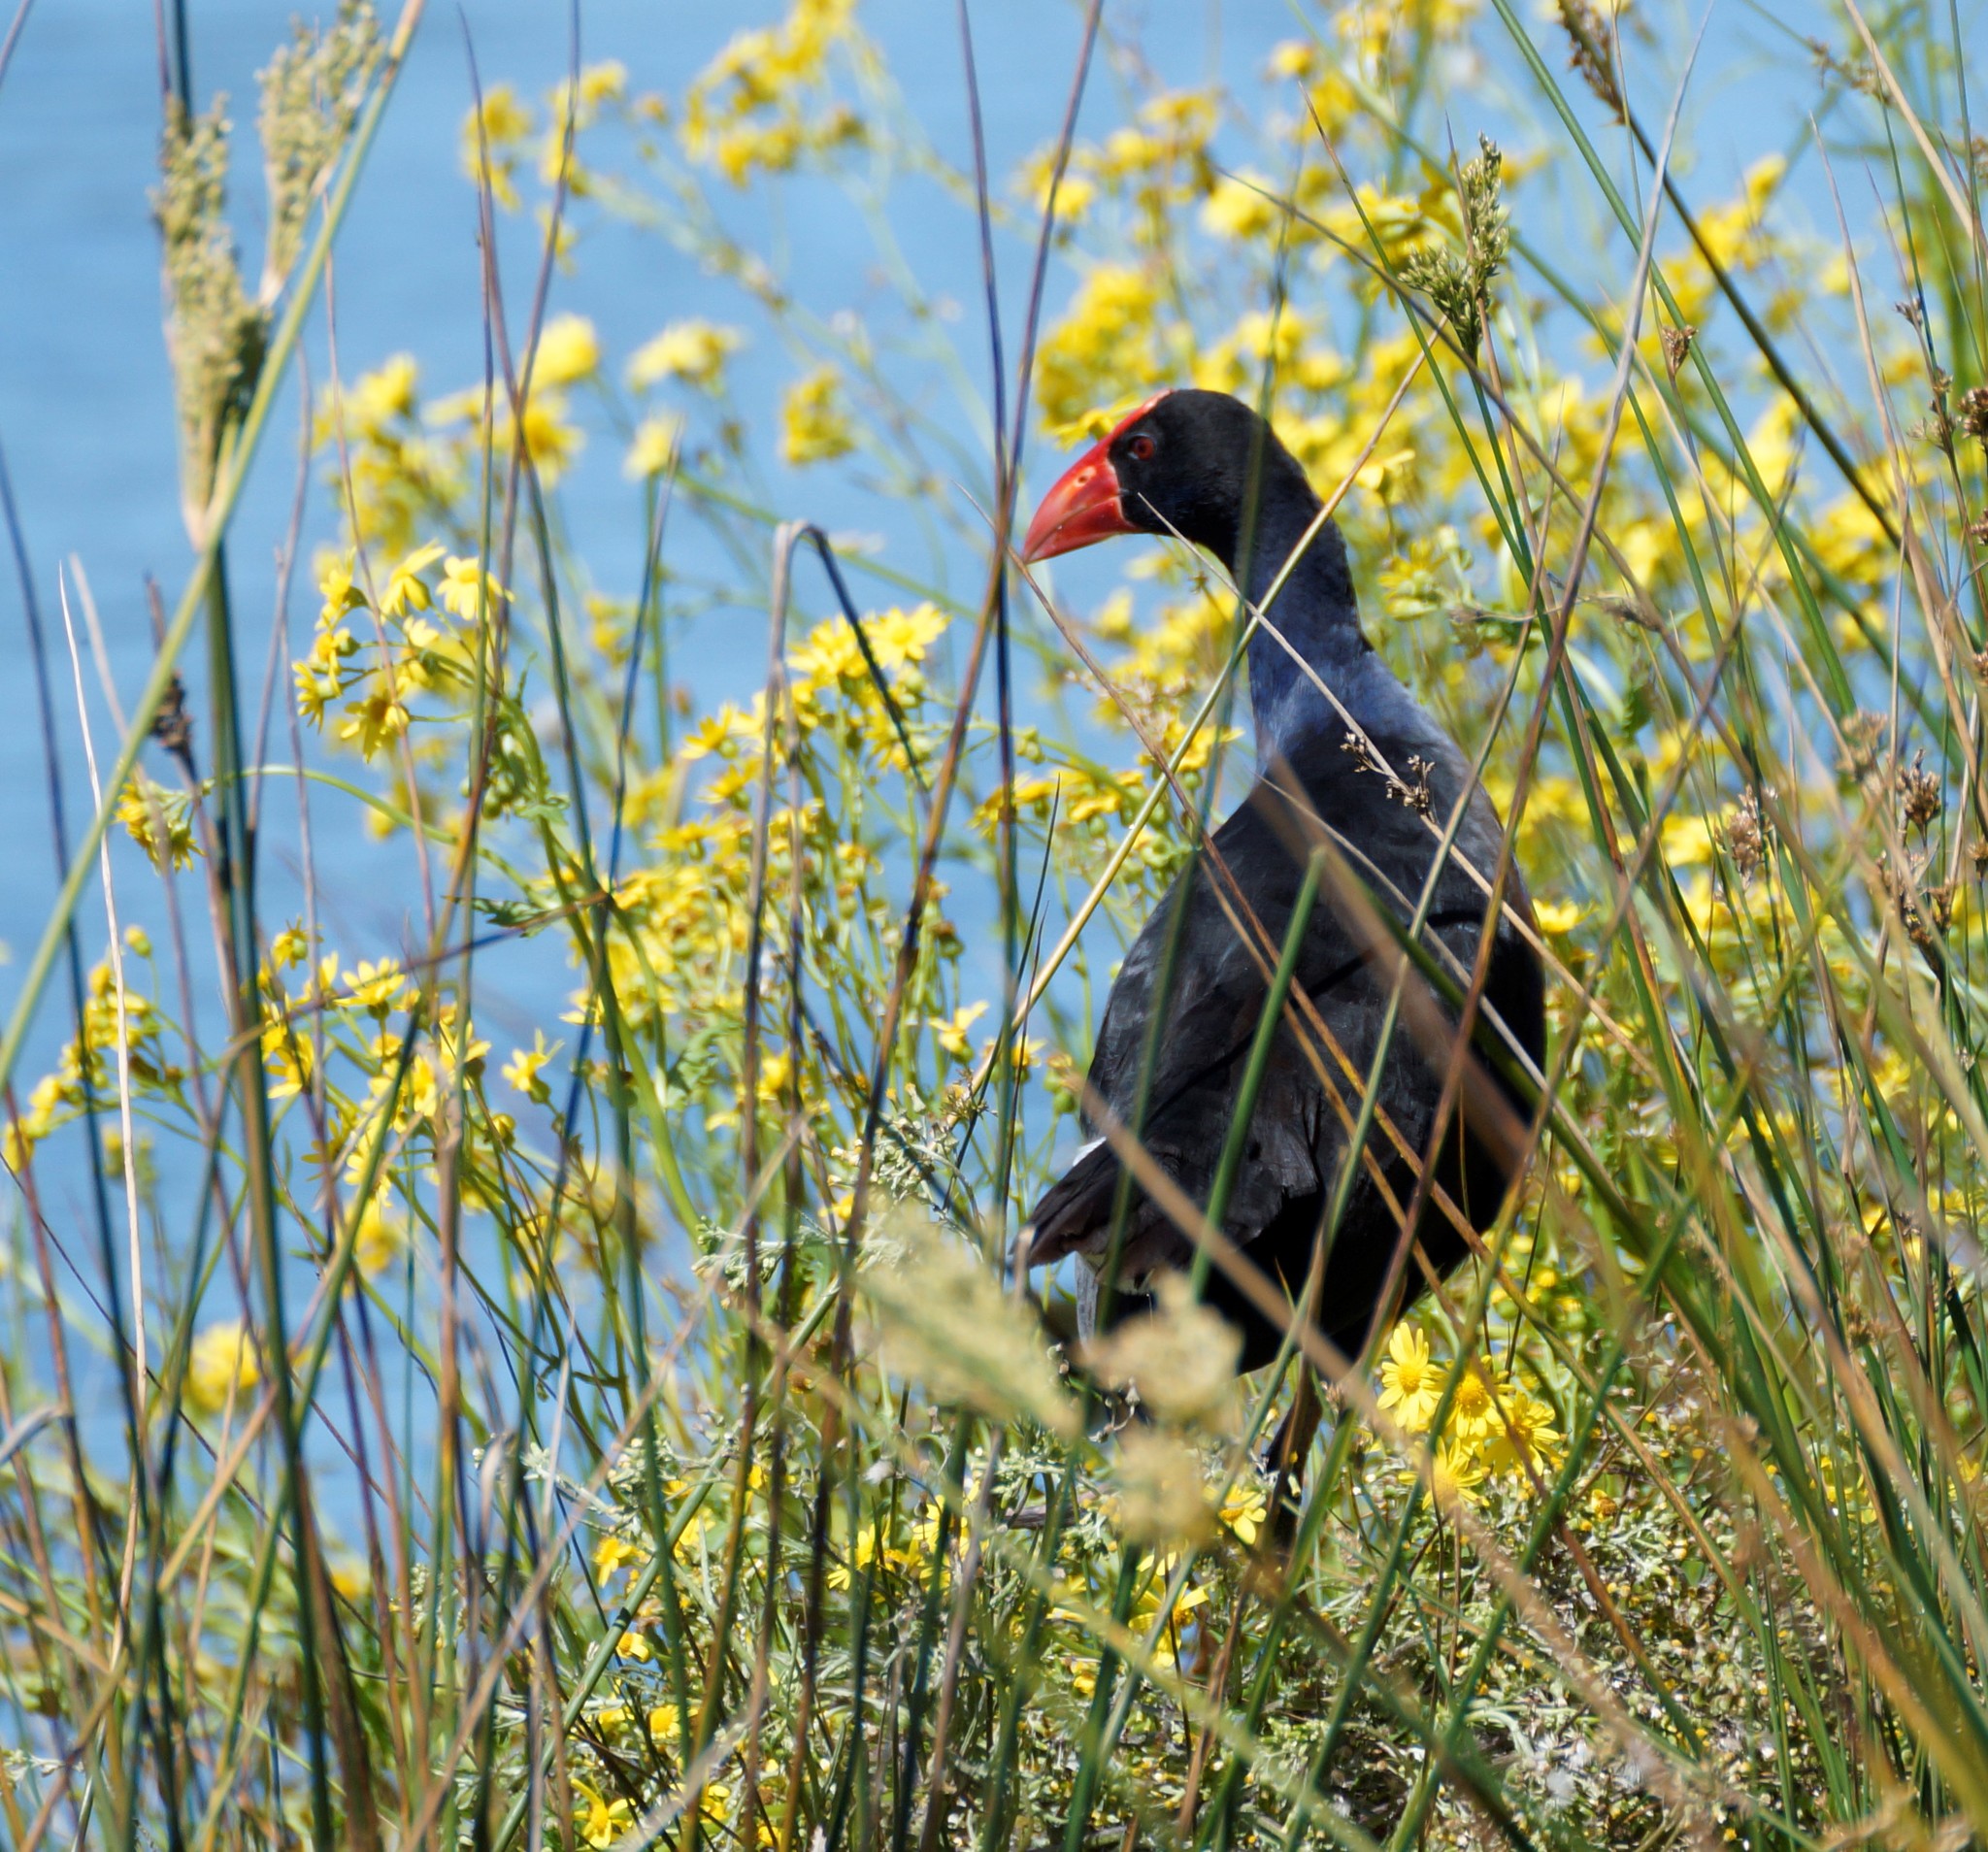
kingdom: Animalia
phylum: Chordata
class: Aves
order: Gruiformes
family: Rallidae
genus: Porphyrio
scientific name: Porphyrio melanotus
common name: Australasian swamphen
